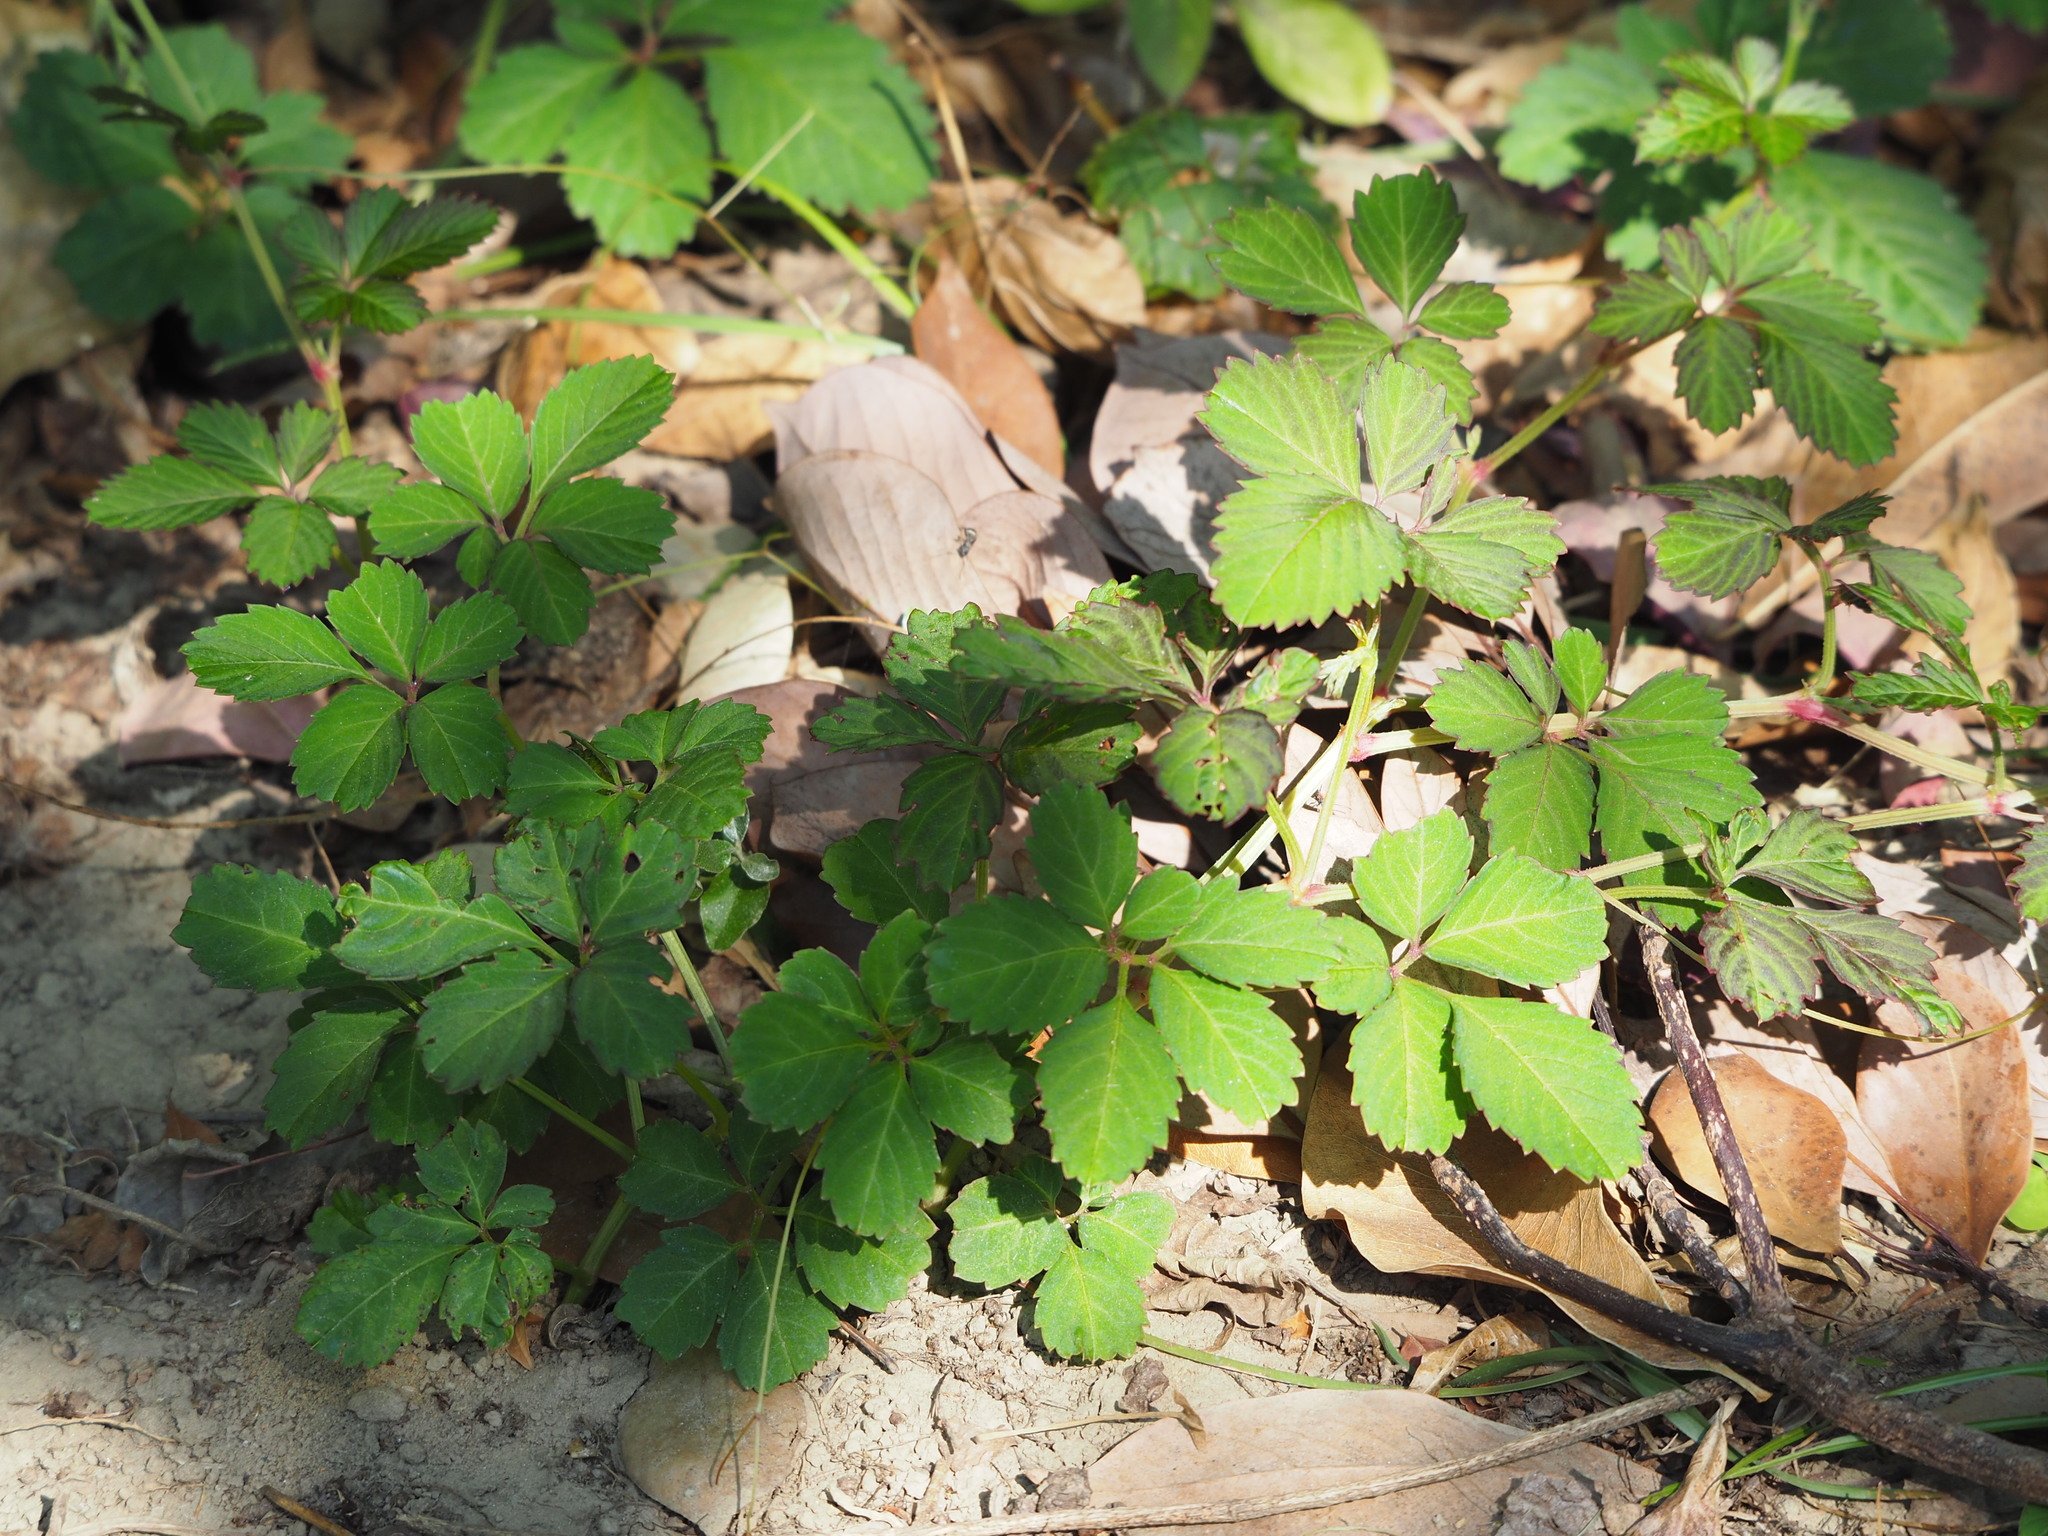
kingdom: Plantae
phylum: Tracheophyta
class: Magnoliopsida
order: Vitales
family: Vitaceae
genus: Causonis
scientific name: Causonis japonica
